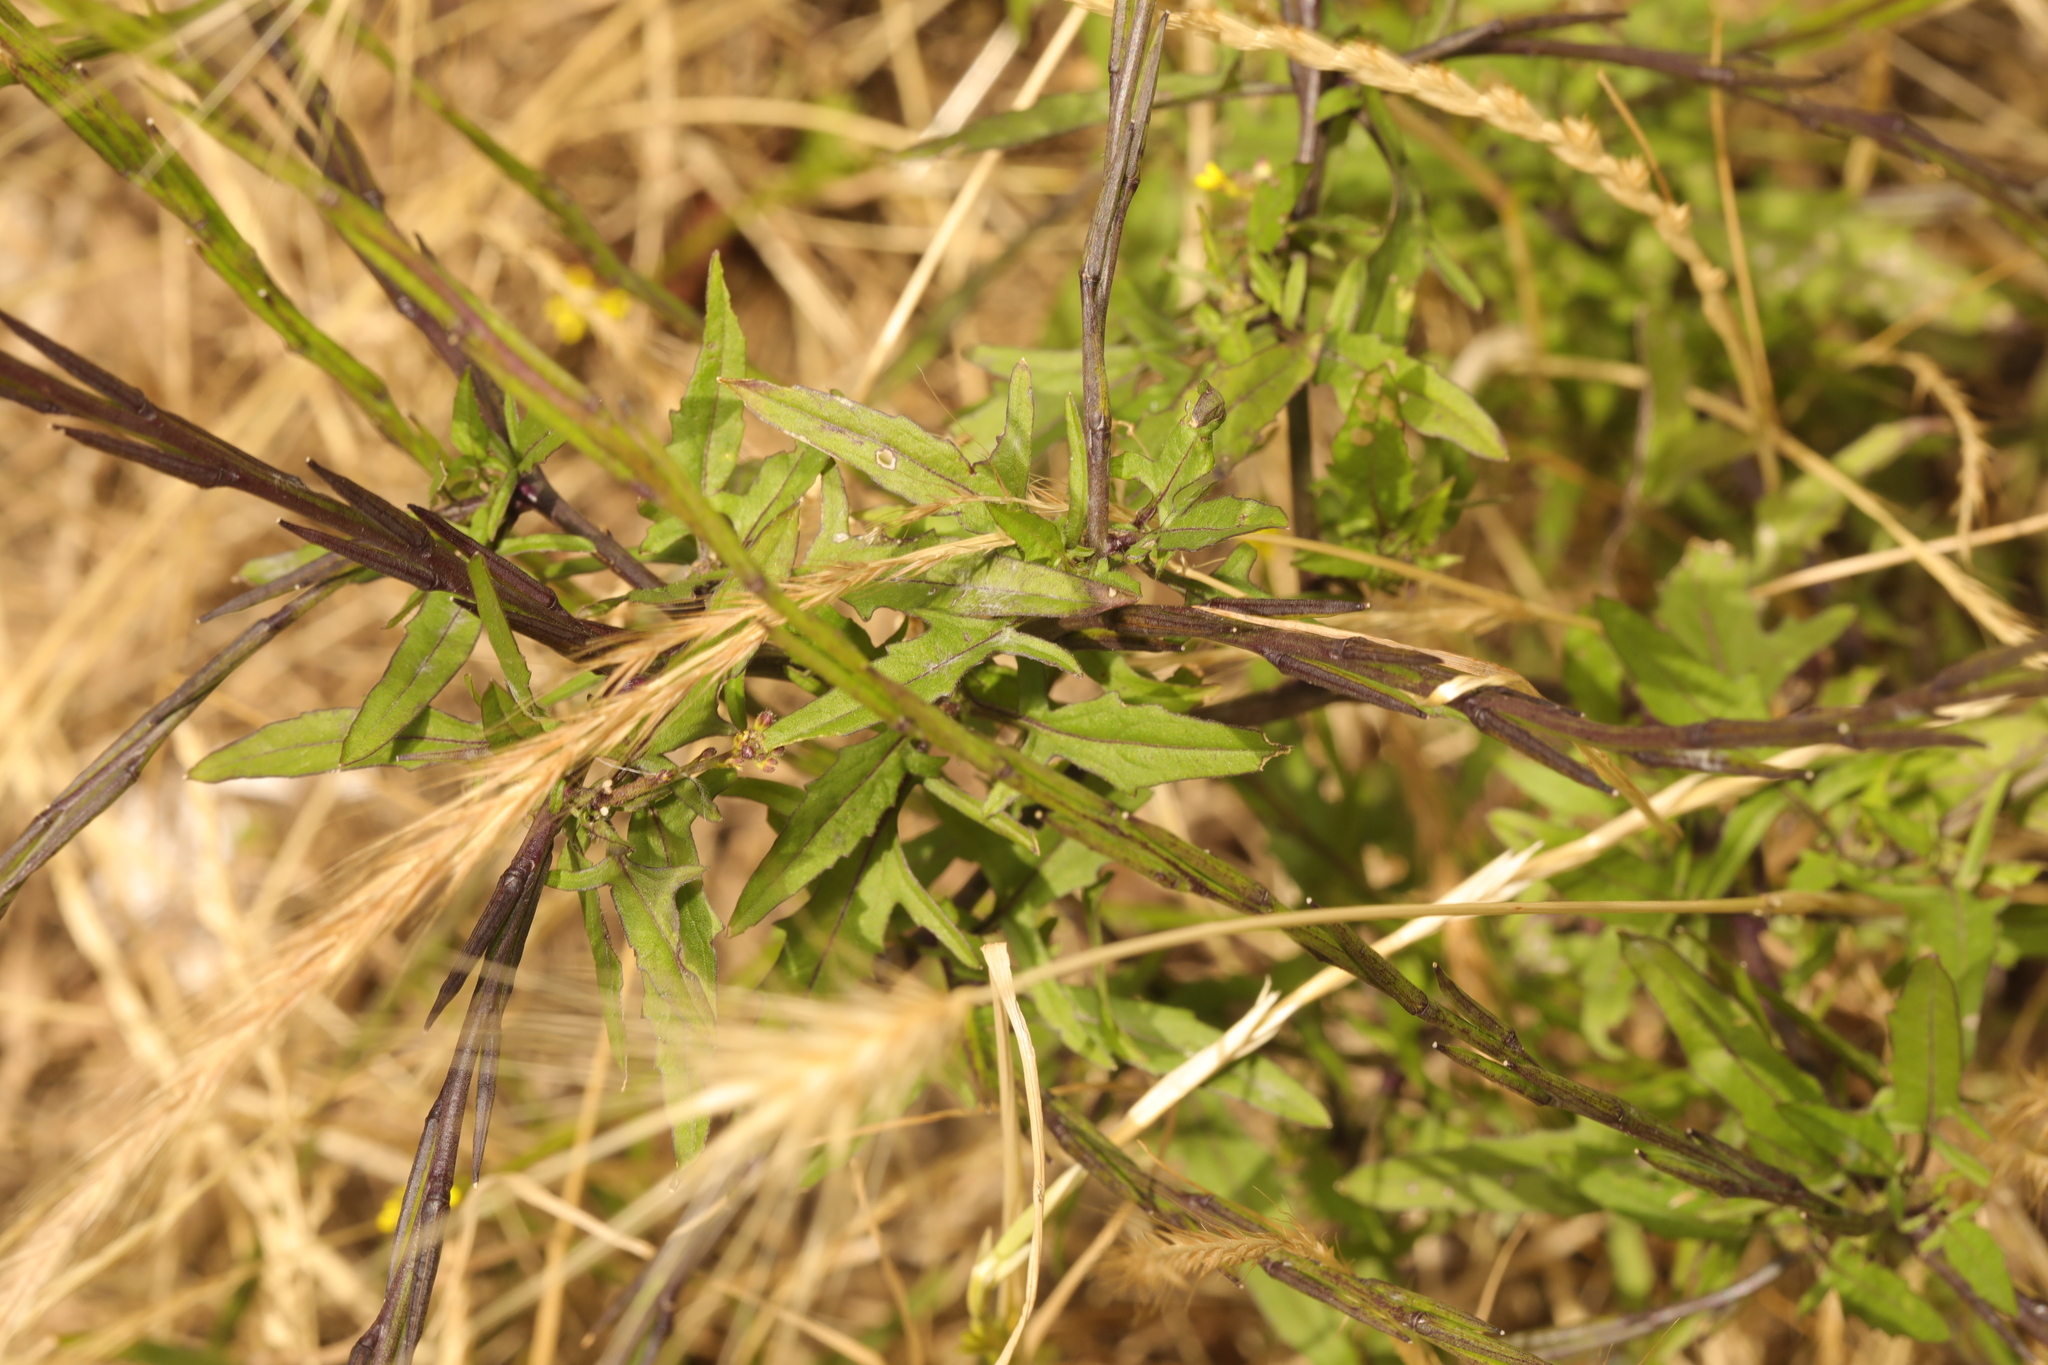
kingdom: Plantae
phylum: Tracheophyta
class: Magnoliopsida
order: Brassicales
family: Brassicaceae
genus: Sisymbrium
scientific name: Sisymbrium officinale
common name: Hedge mustard
